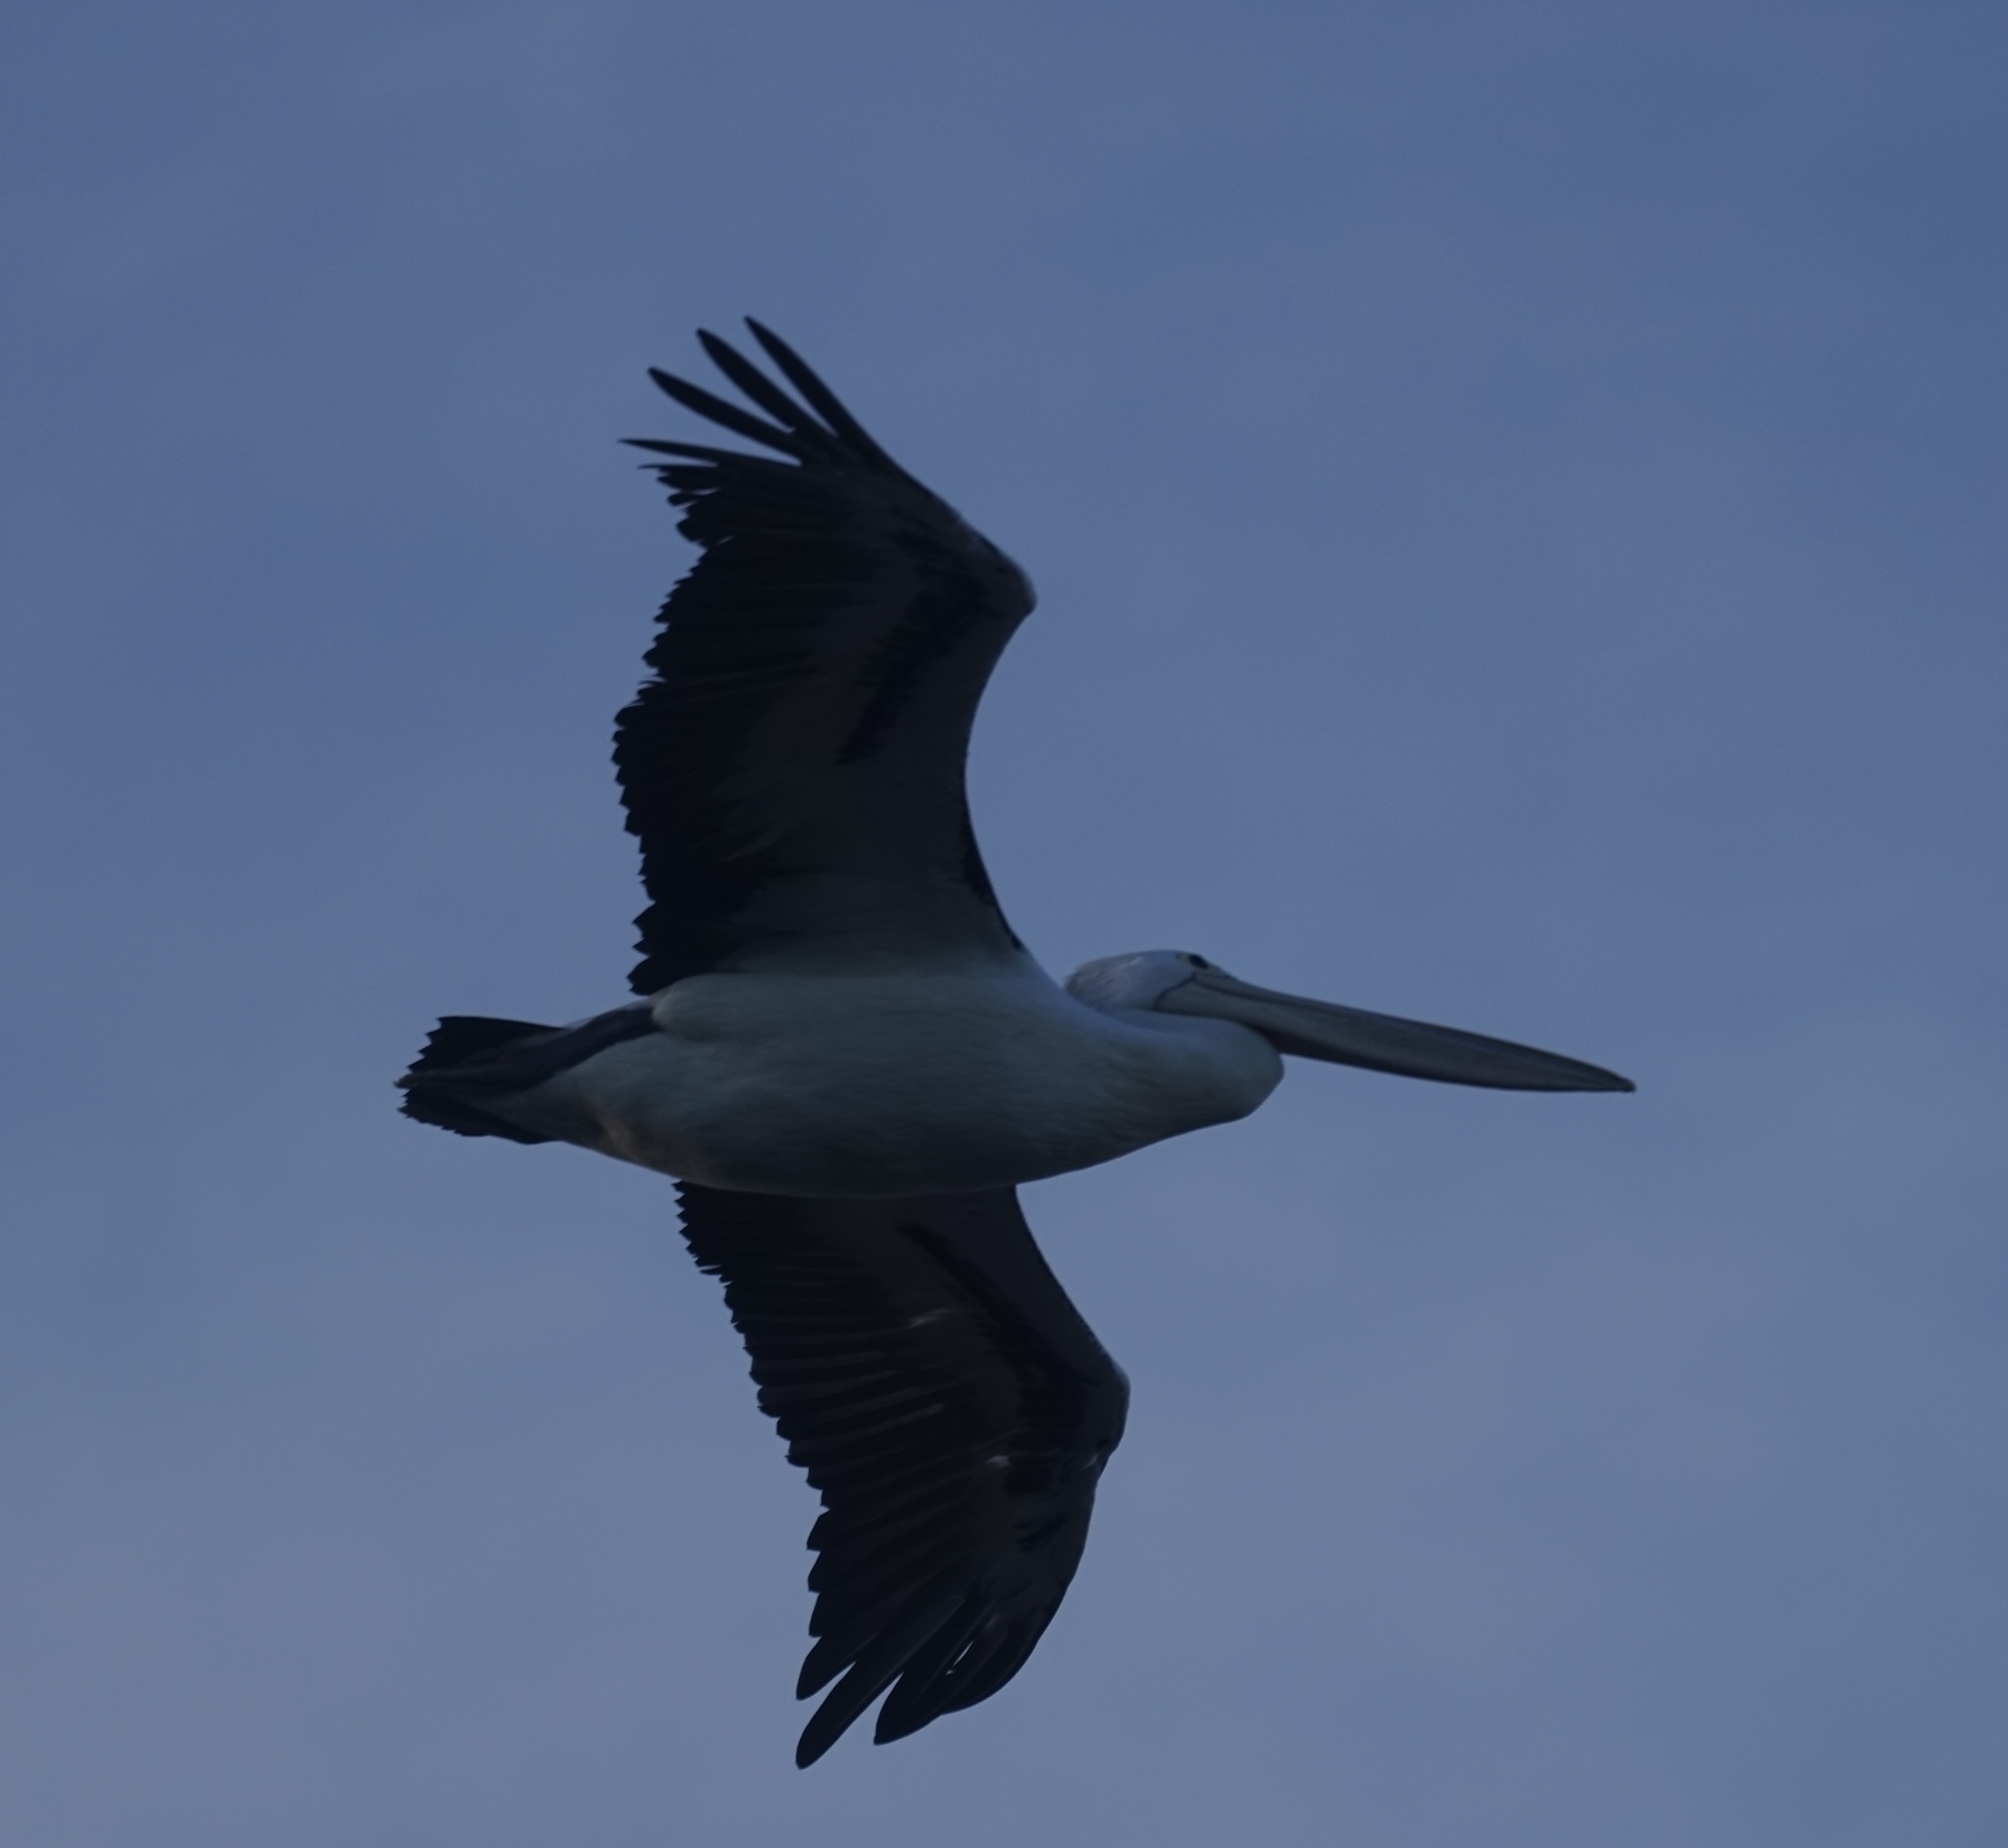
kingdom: Animalia
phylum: Chordata
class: Aves
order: Pelecaniformes
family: Pelecanidae
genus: Pelecanus
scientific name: Pelecanus conspicillatus
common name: Australian pelican
